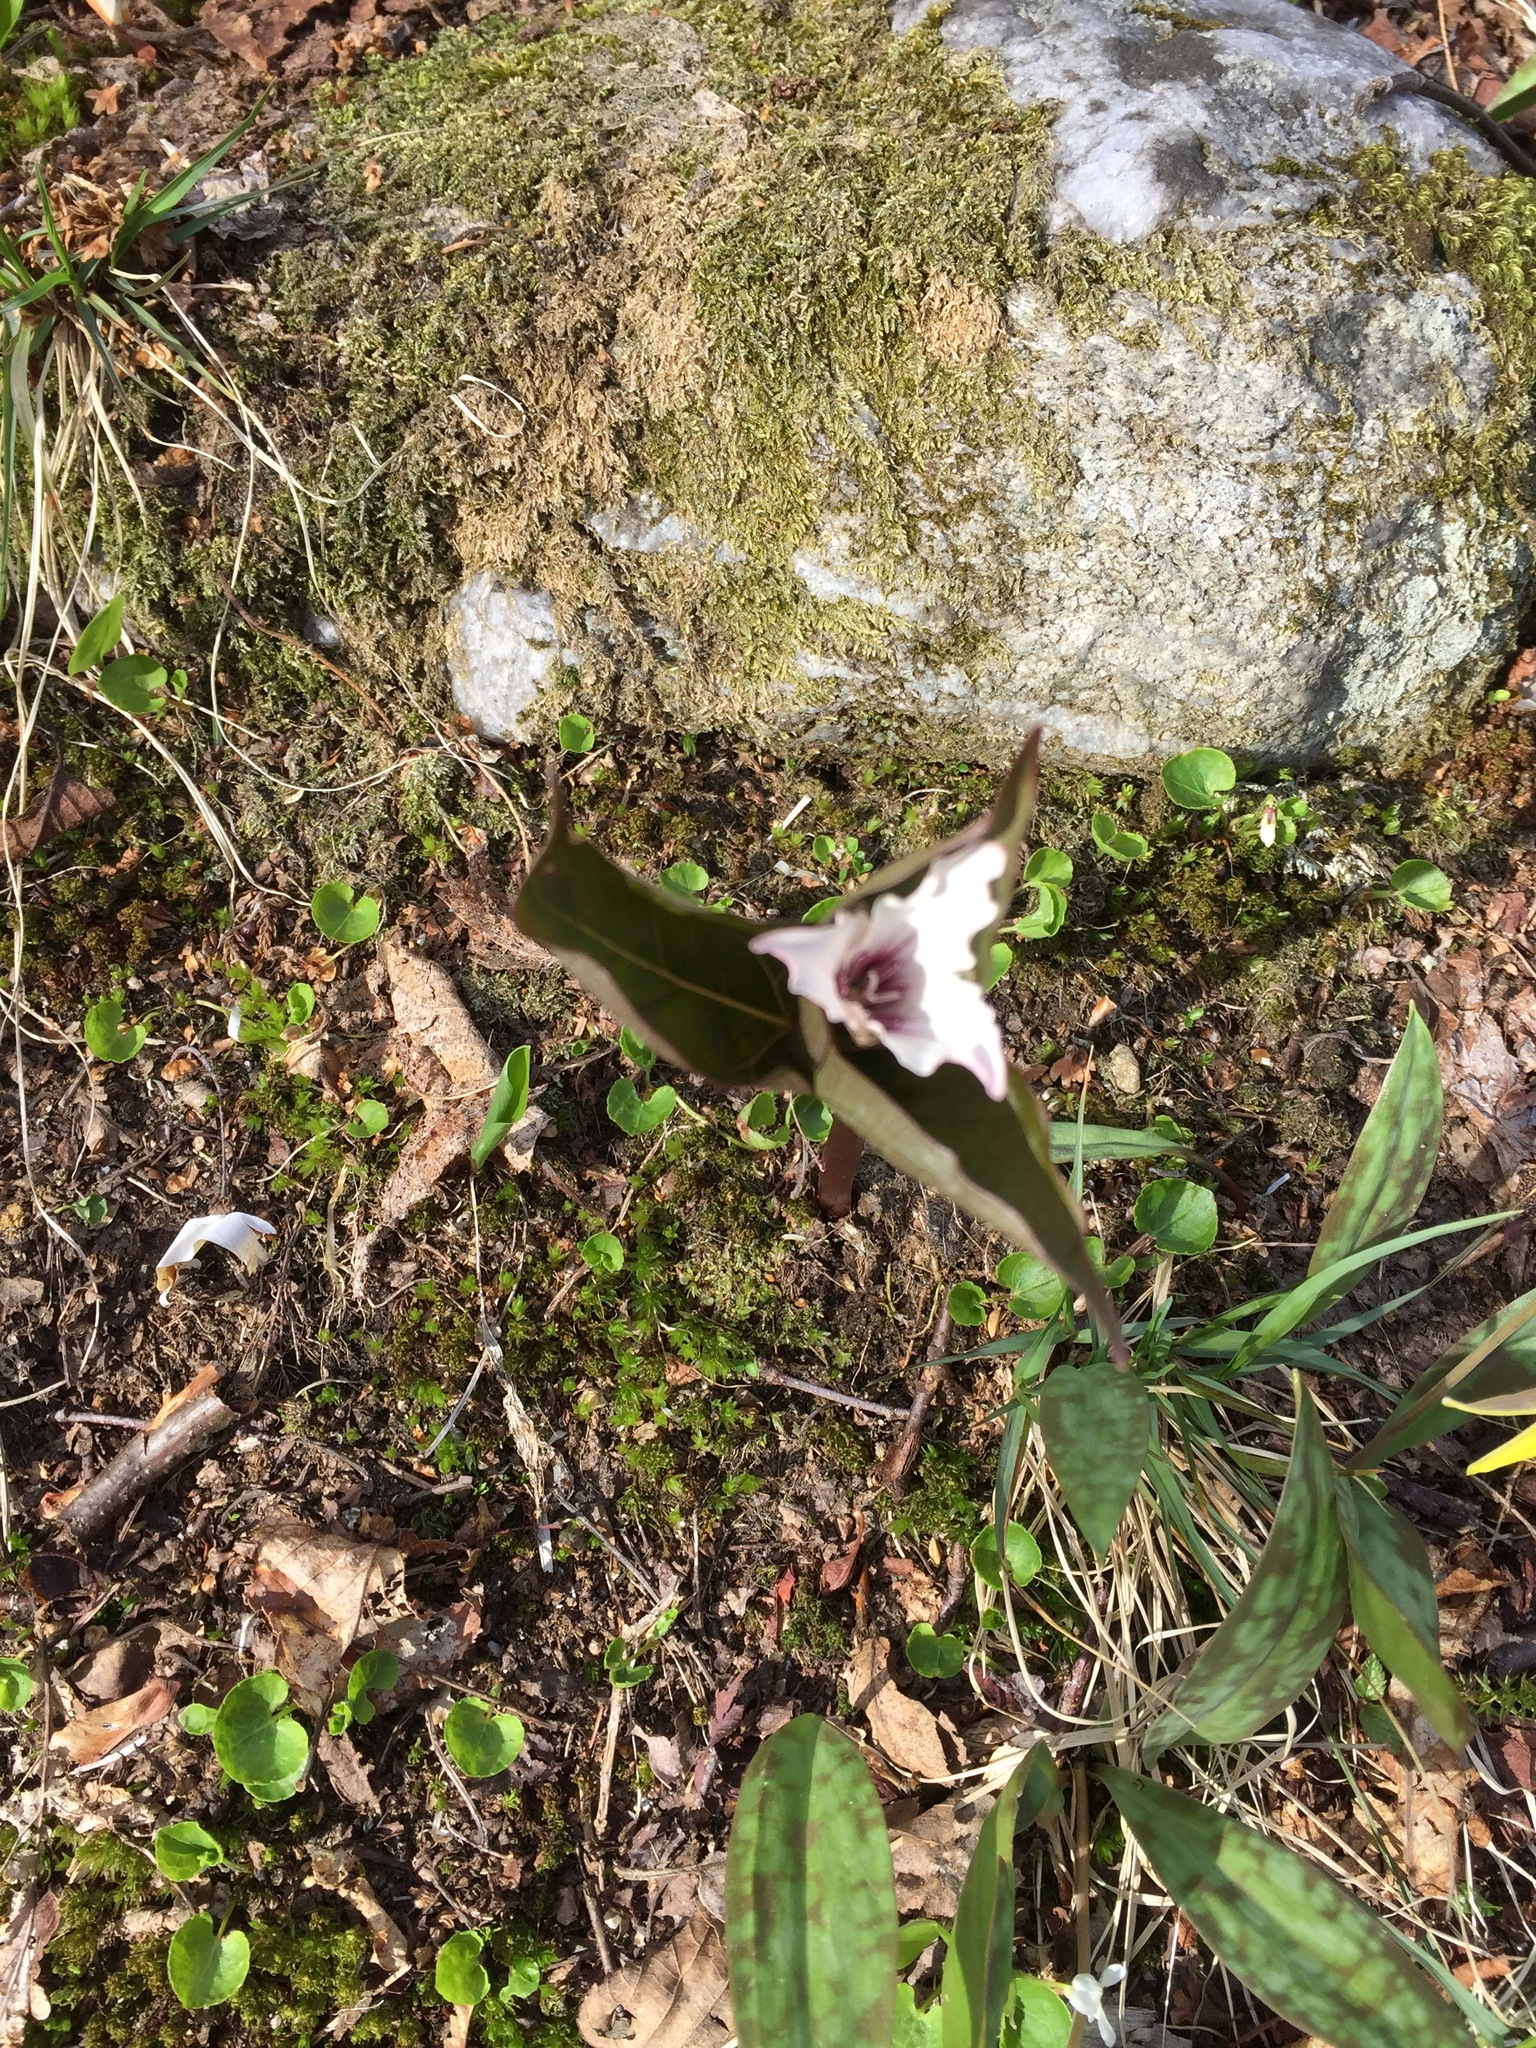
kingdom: Plantae
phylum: Tracheophyta
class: Liliopsida
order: Liliales
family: Melanthiaceae
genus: Trillium
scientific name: Trillium undulatum
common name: Paint trillium
